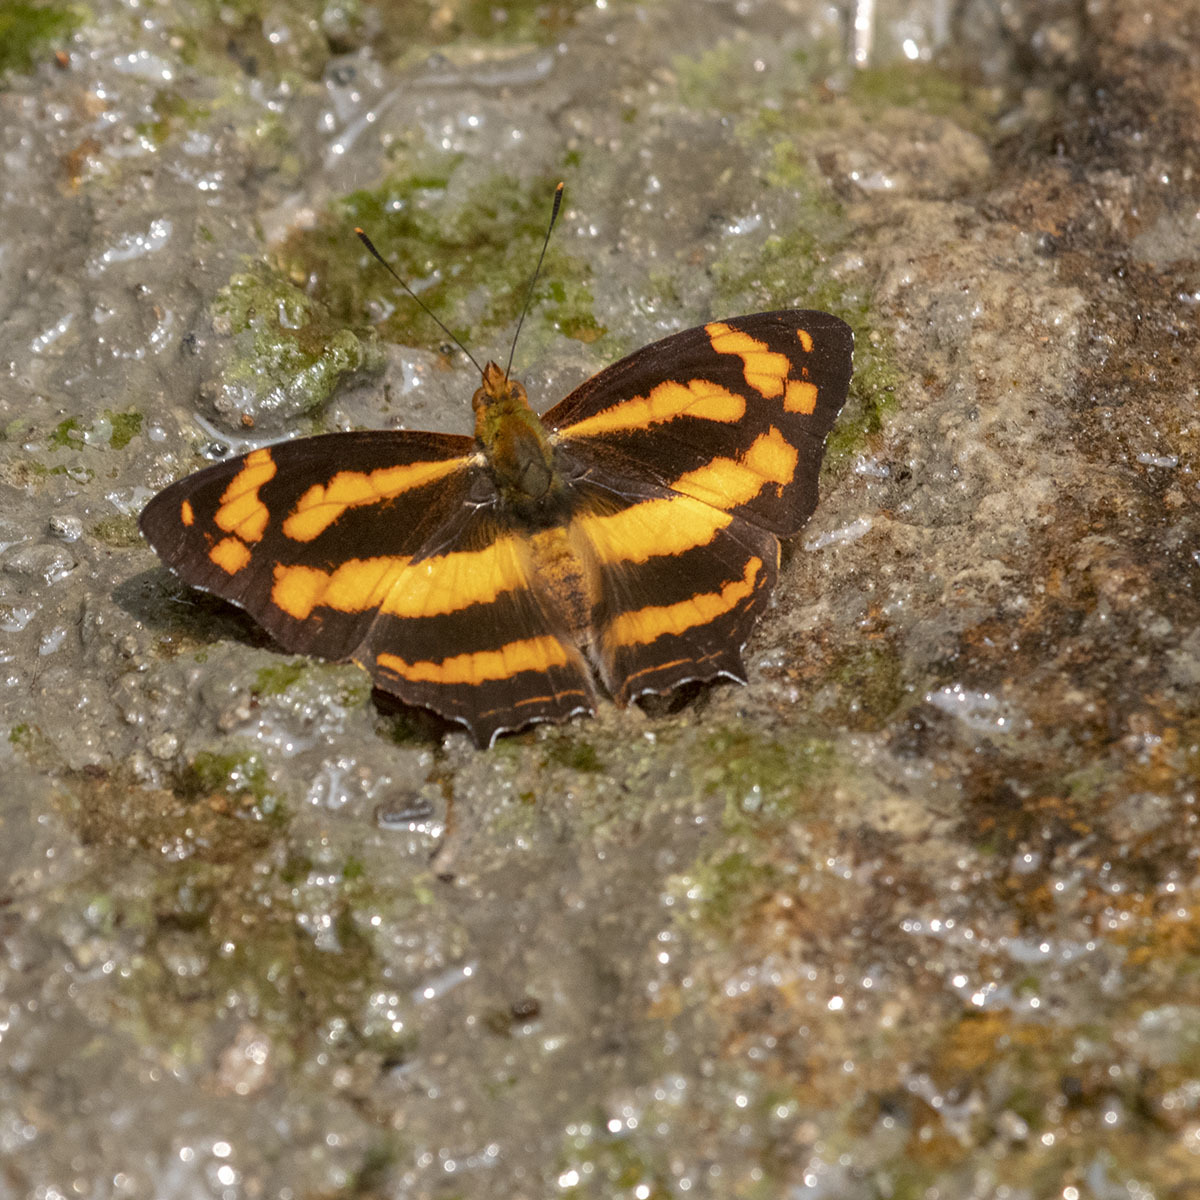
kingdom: Animalia
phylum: Arthropoda
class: Insecta
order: Lepidoptera
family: Nymphalidae
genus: Symbrenthia
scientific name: Symbrenthia hypselis
